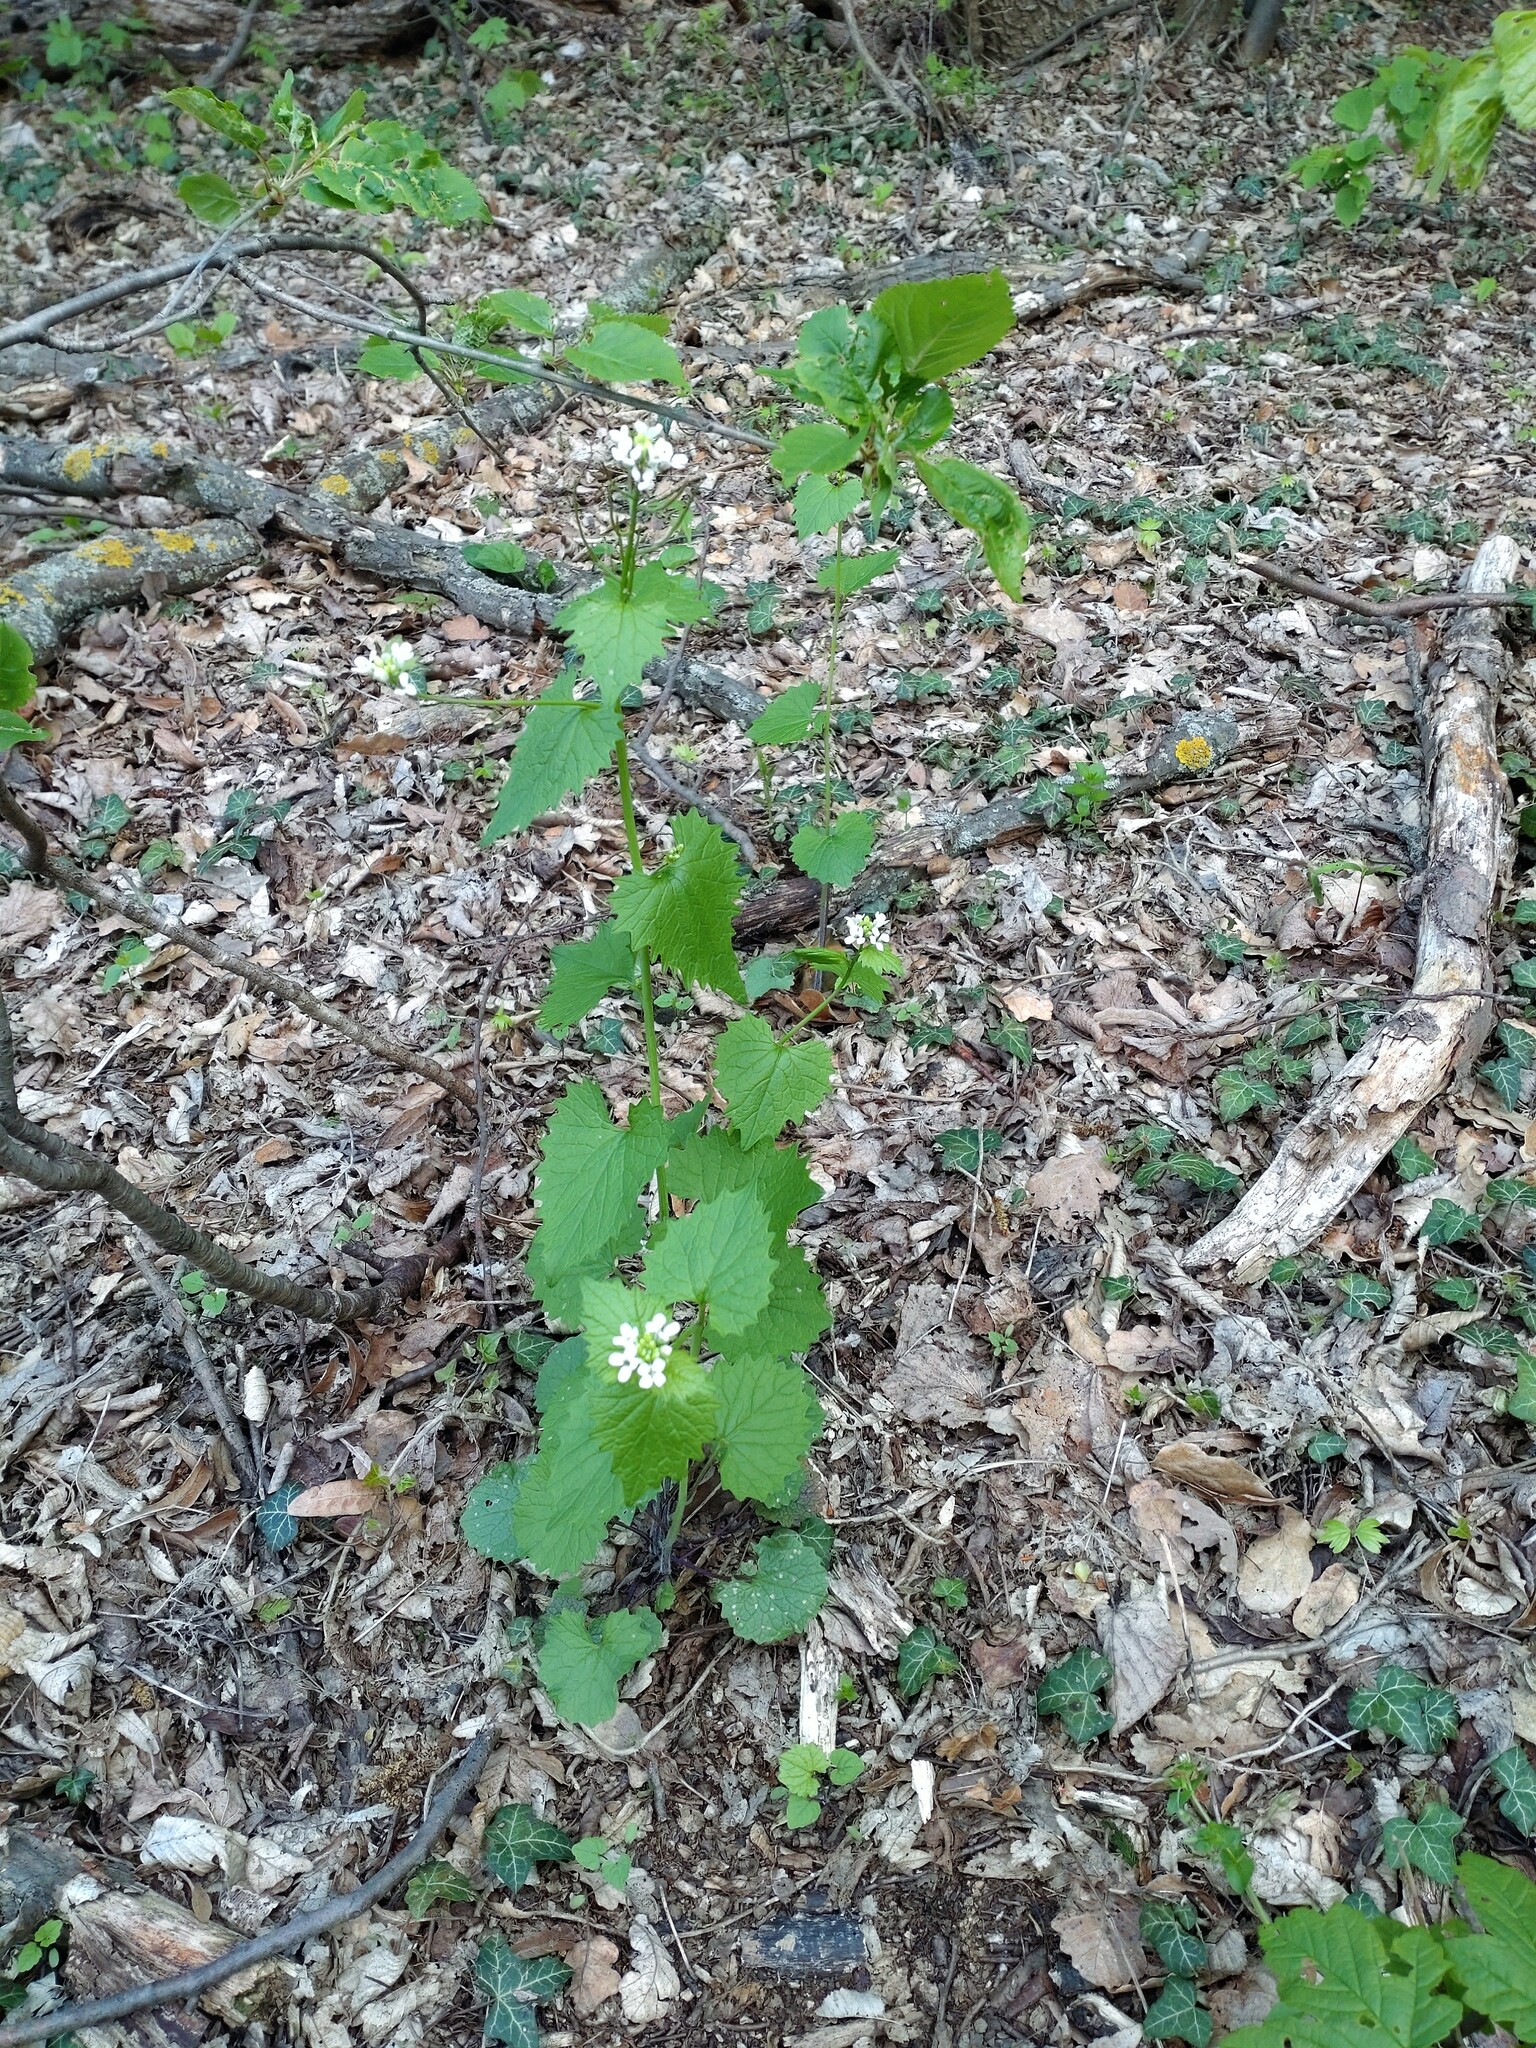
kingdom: Plantae
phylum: Tracheophyta
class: Magnoliopsida
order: Brassicales
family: Brassicaceae
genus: Alliaria
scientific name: Alliaria petiolata
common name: Garlic mustard
